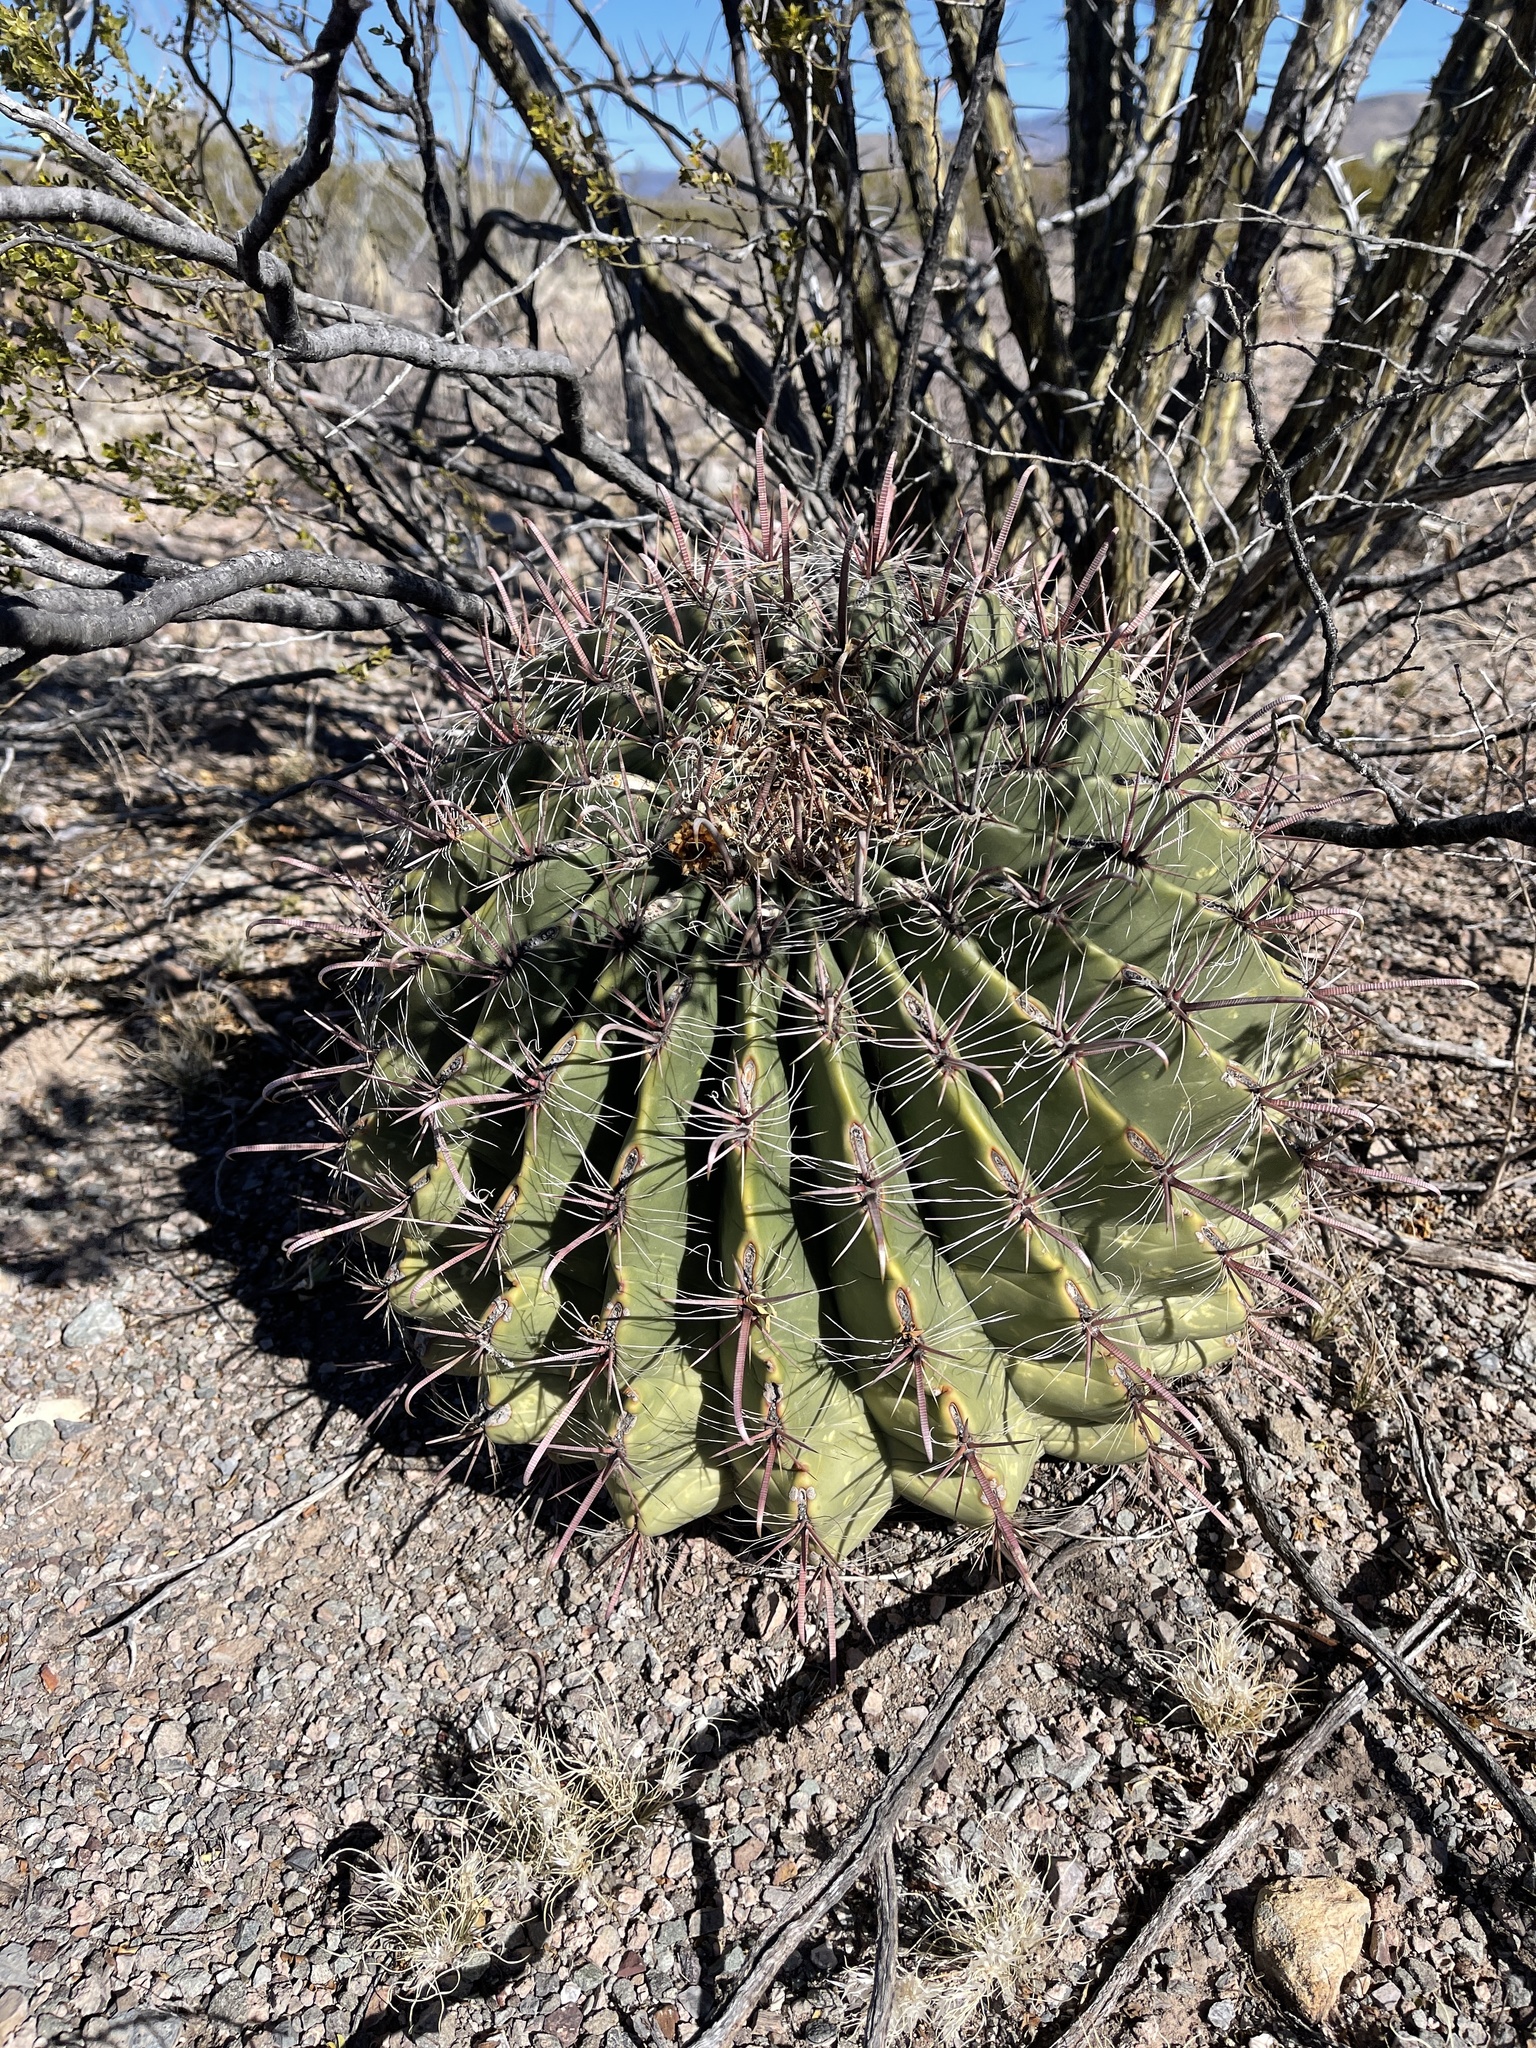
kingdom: Plantae
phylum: Tracheophyta
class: Magnoliopsida
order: Caryophyllales
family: Cactaceae
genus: Ferocactus
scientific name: Ferocactus wislizeni
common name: Candy barrel cactus
